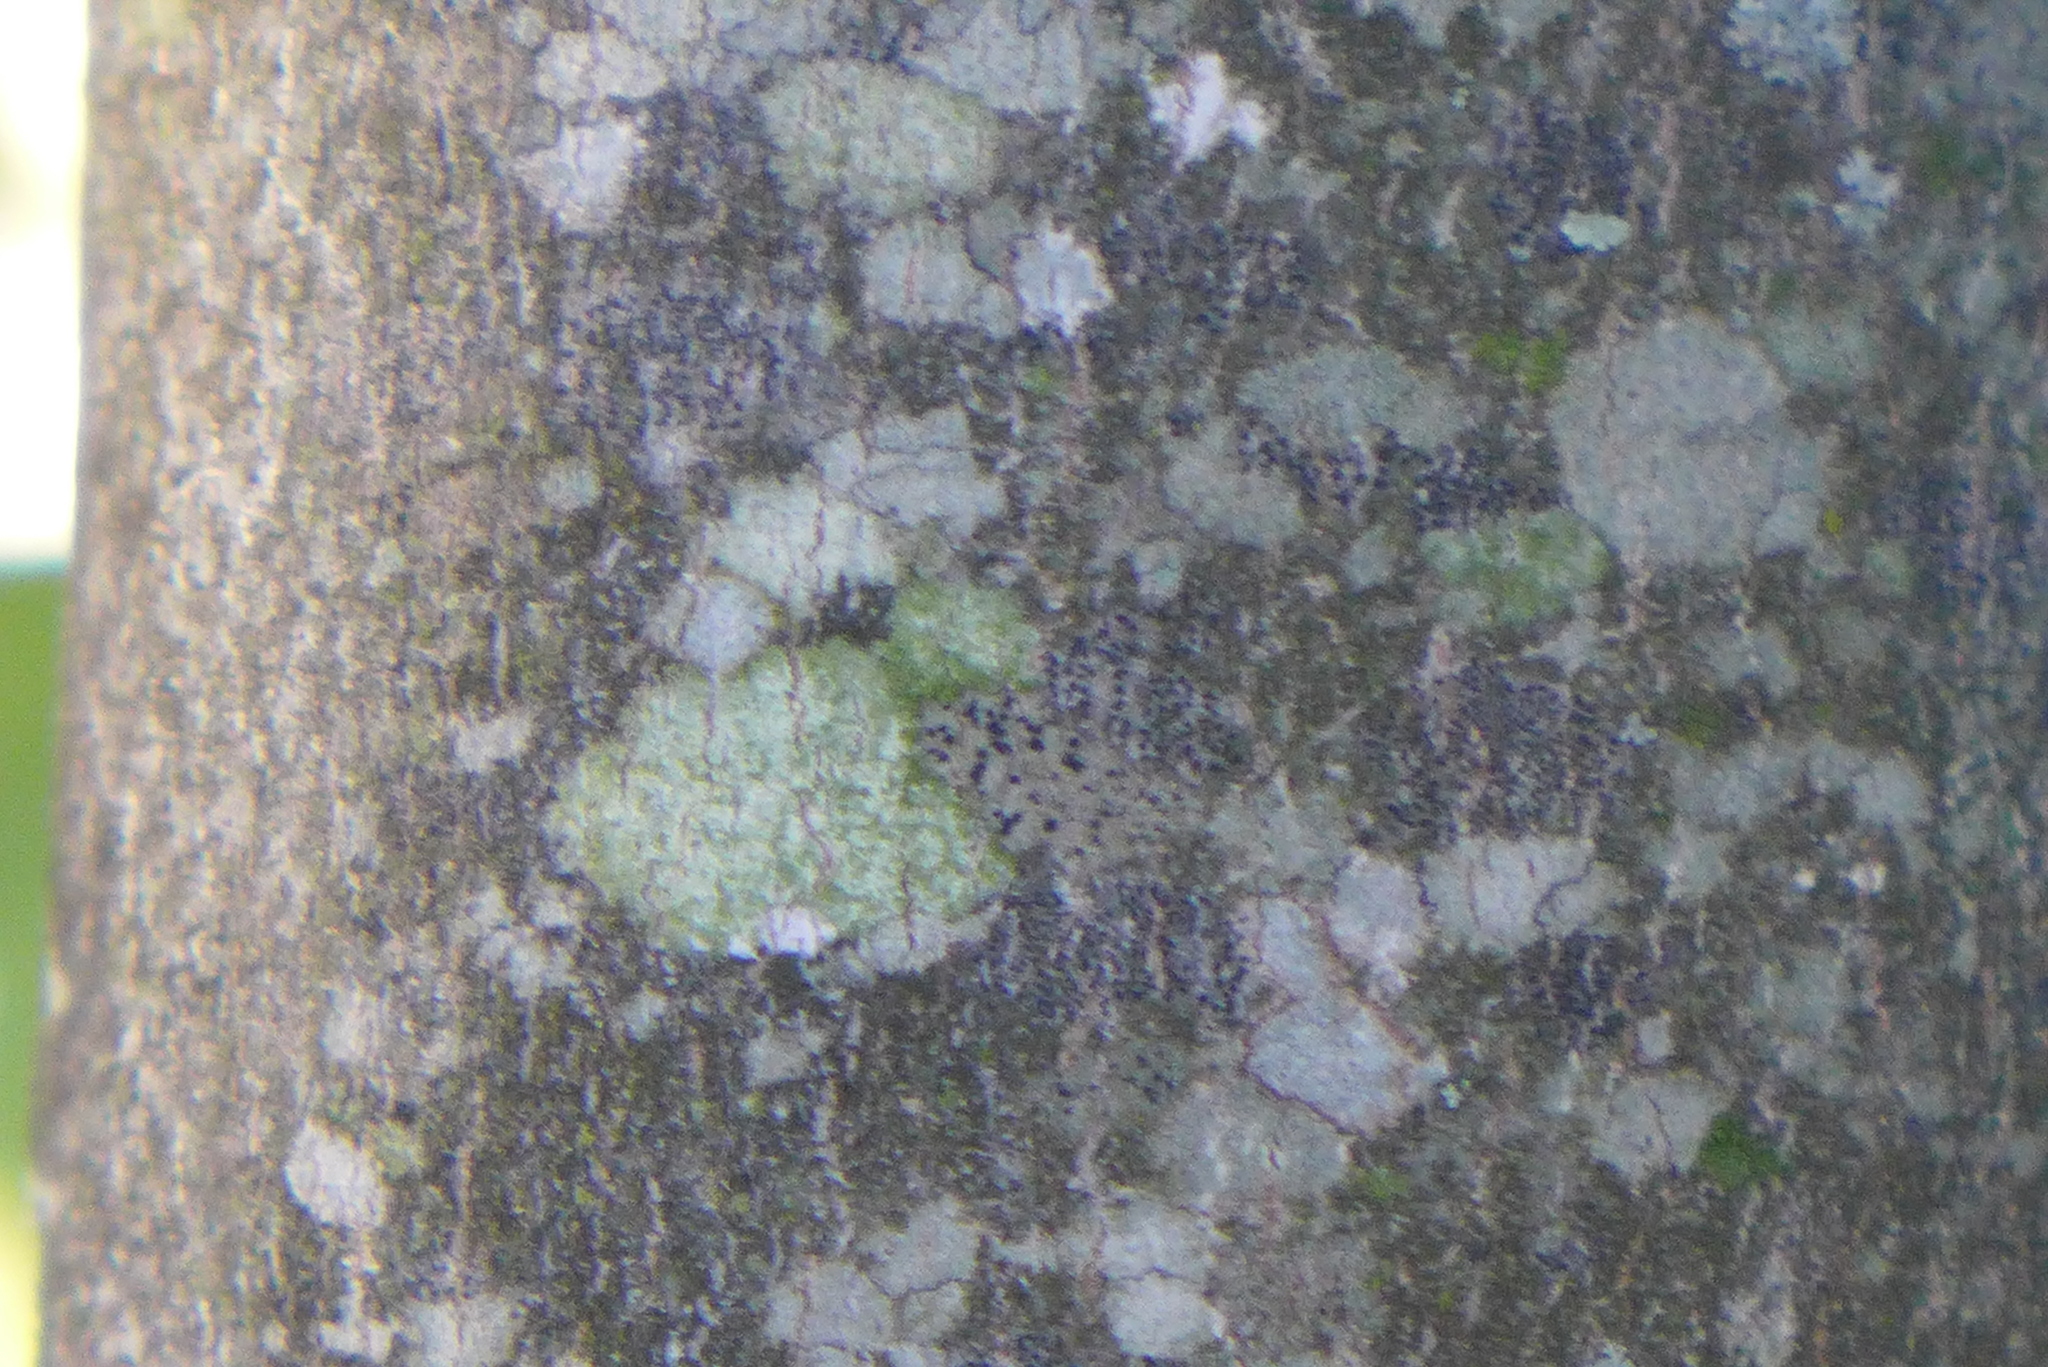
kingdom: Fungi
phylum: Ascomycota
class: Lecanoromycetes
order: Lecanorales
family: Ramalinaceae
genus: Bacidia
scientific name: Bacidia
